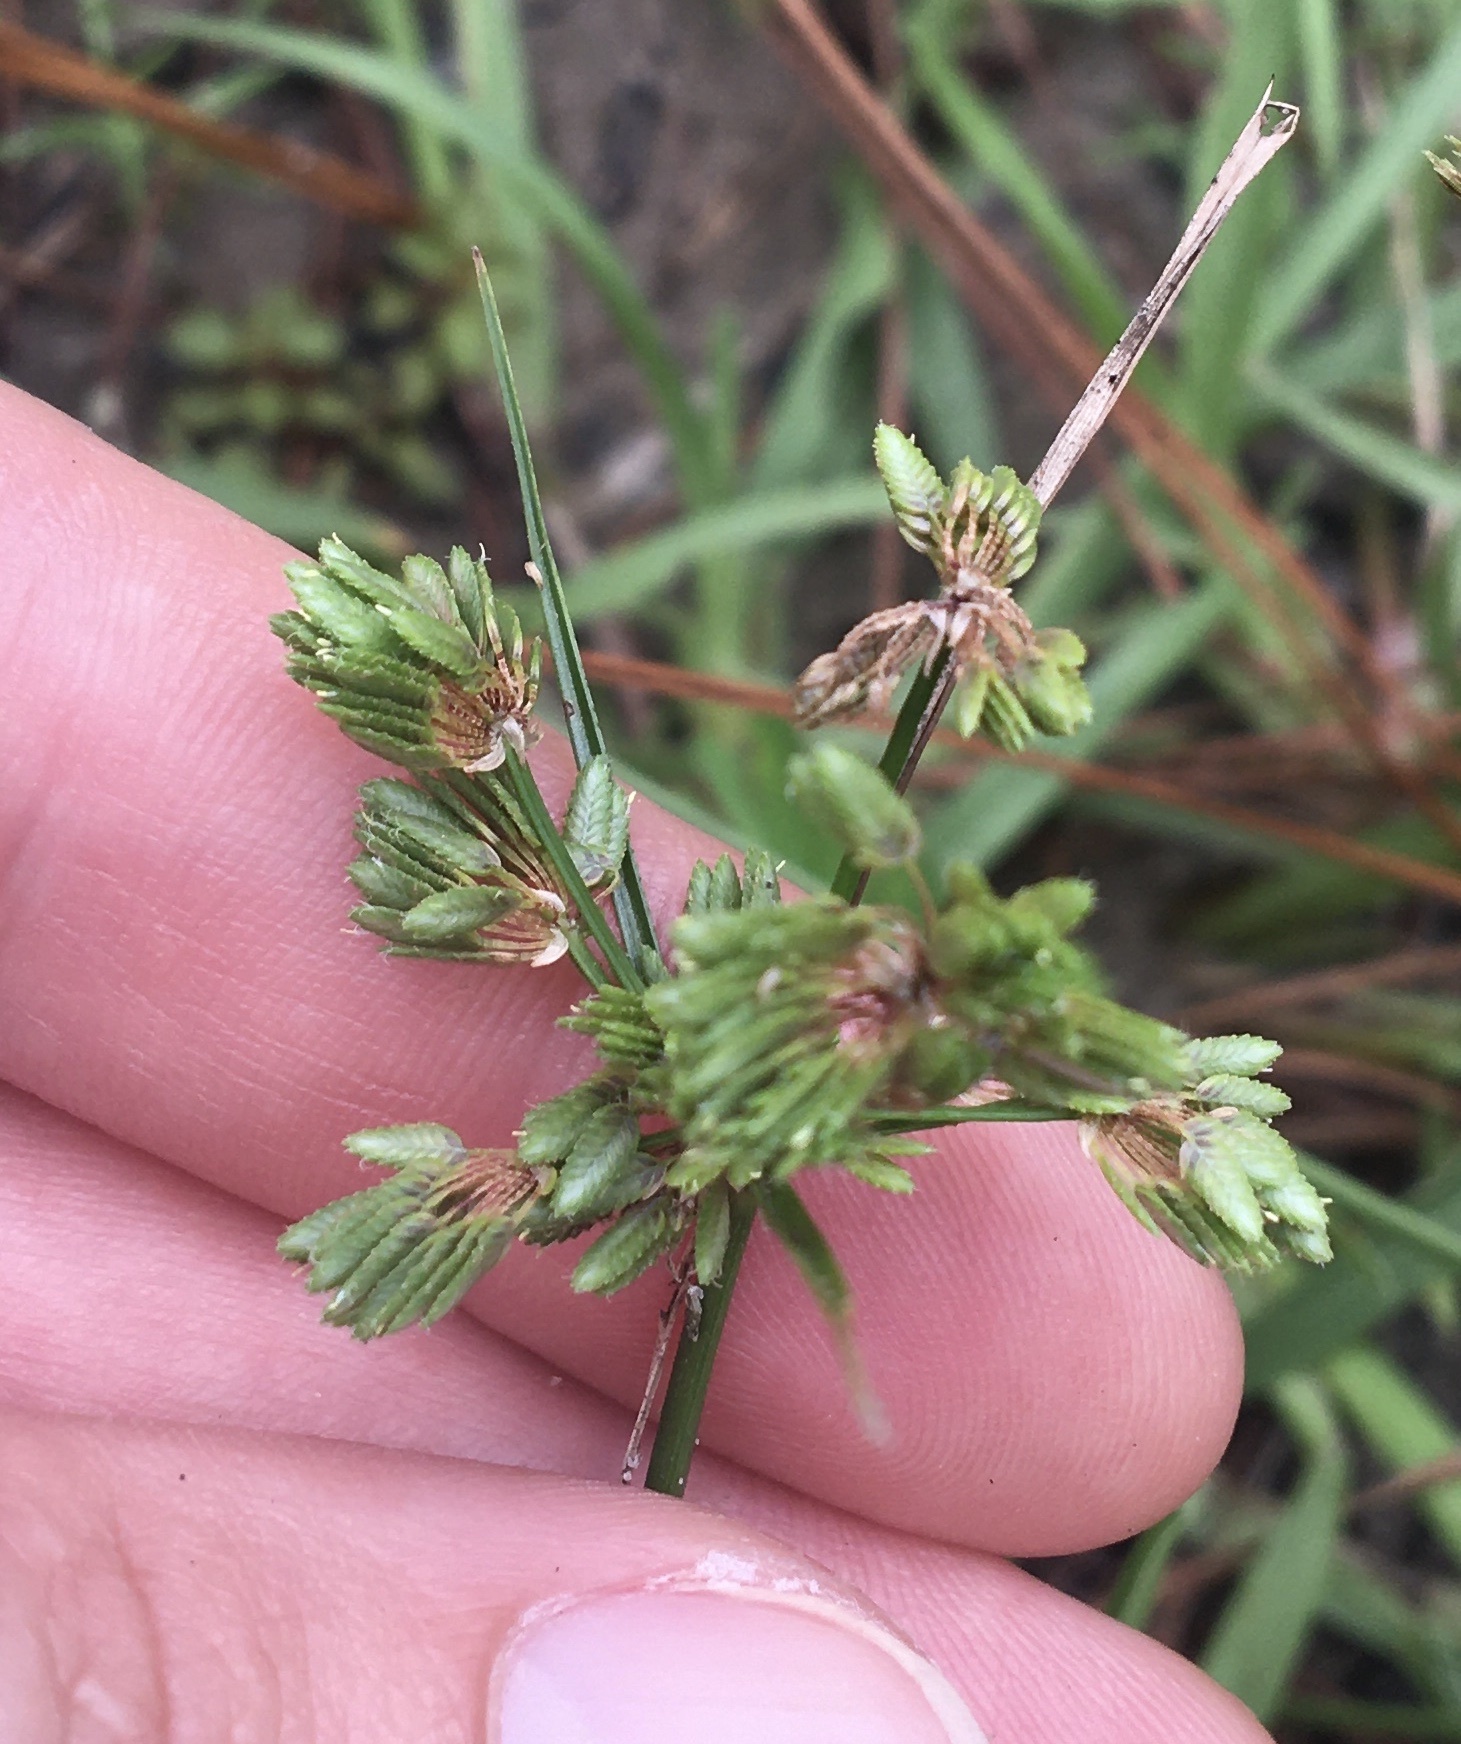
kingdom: Plantae
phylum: Tracheophyta
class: Liliopsida
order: Poales
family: Cyperaceae
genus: Cyperus
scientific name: Cyperus surinamensis
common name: Tropical flat sedge
